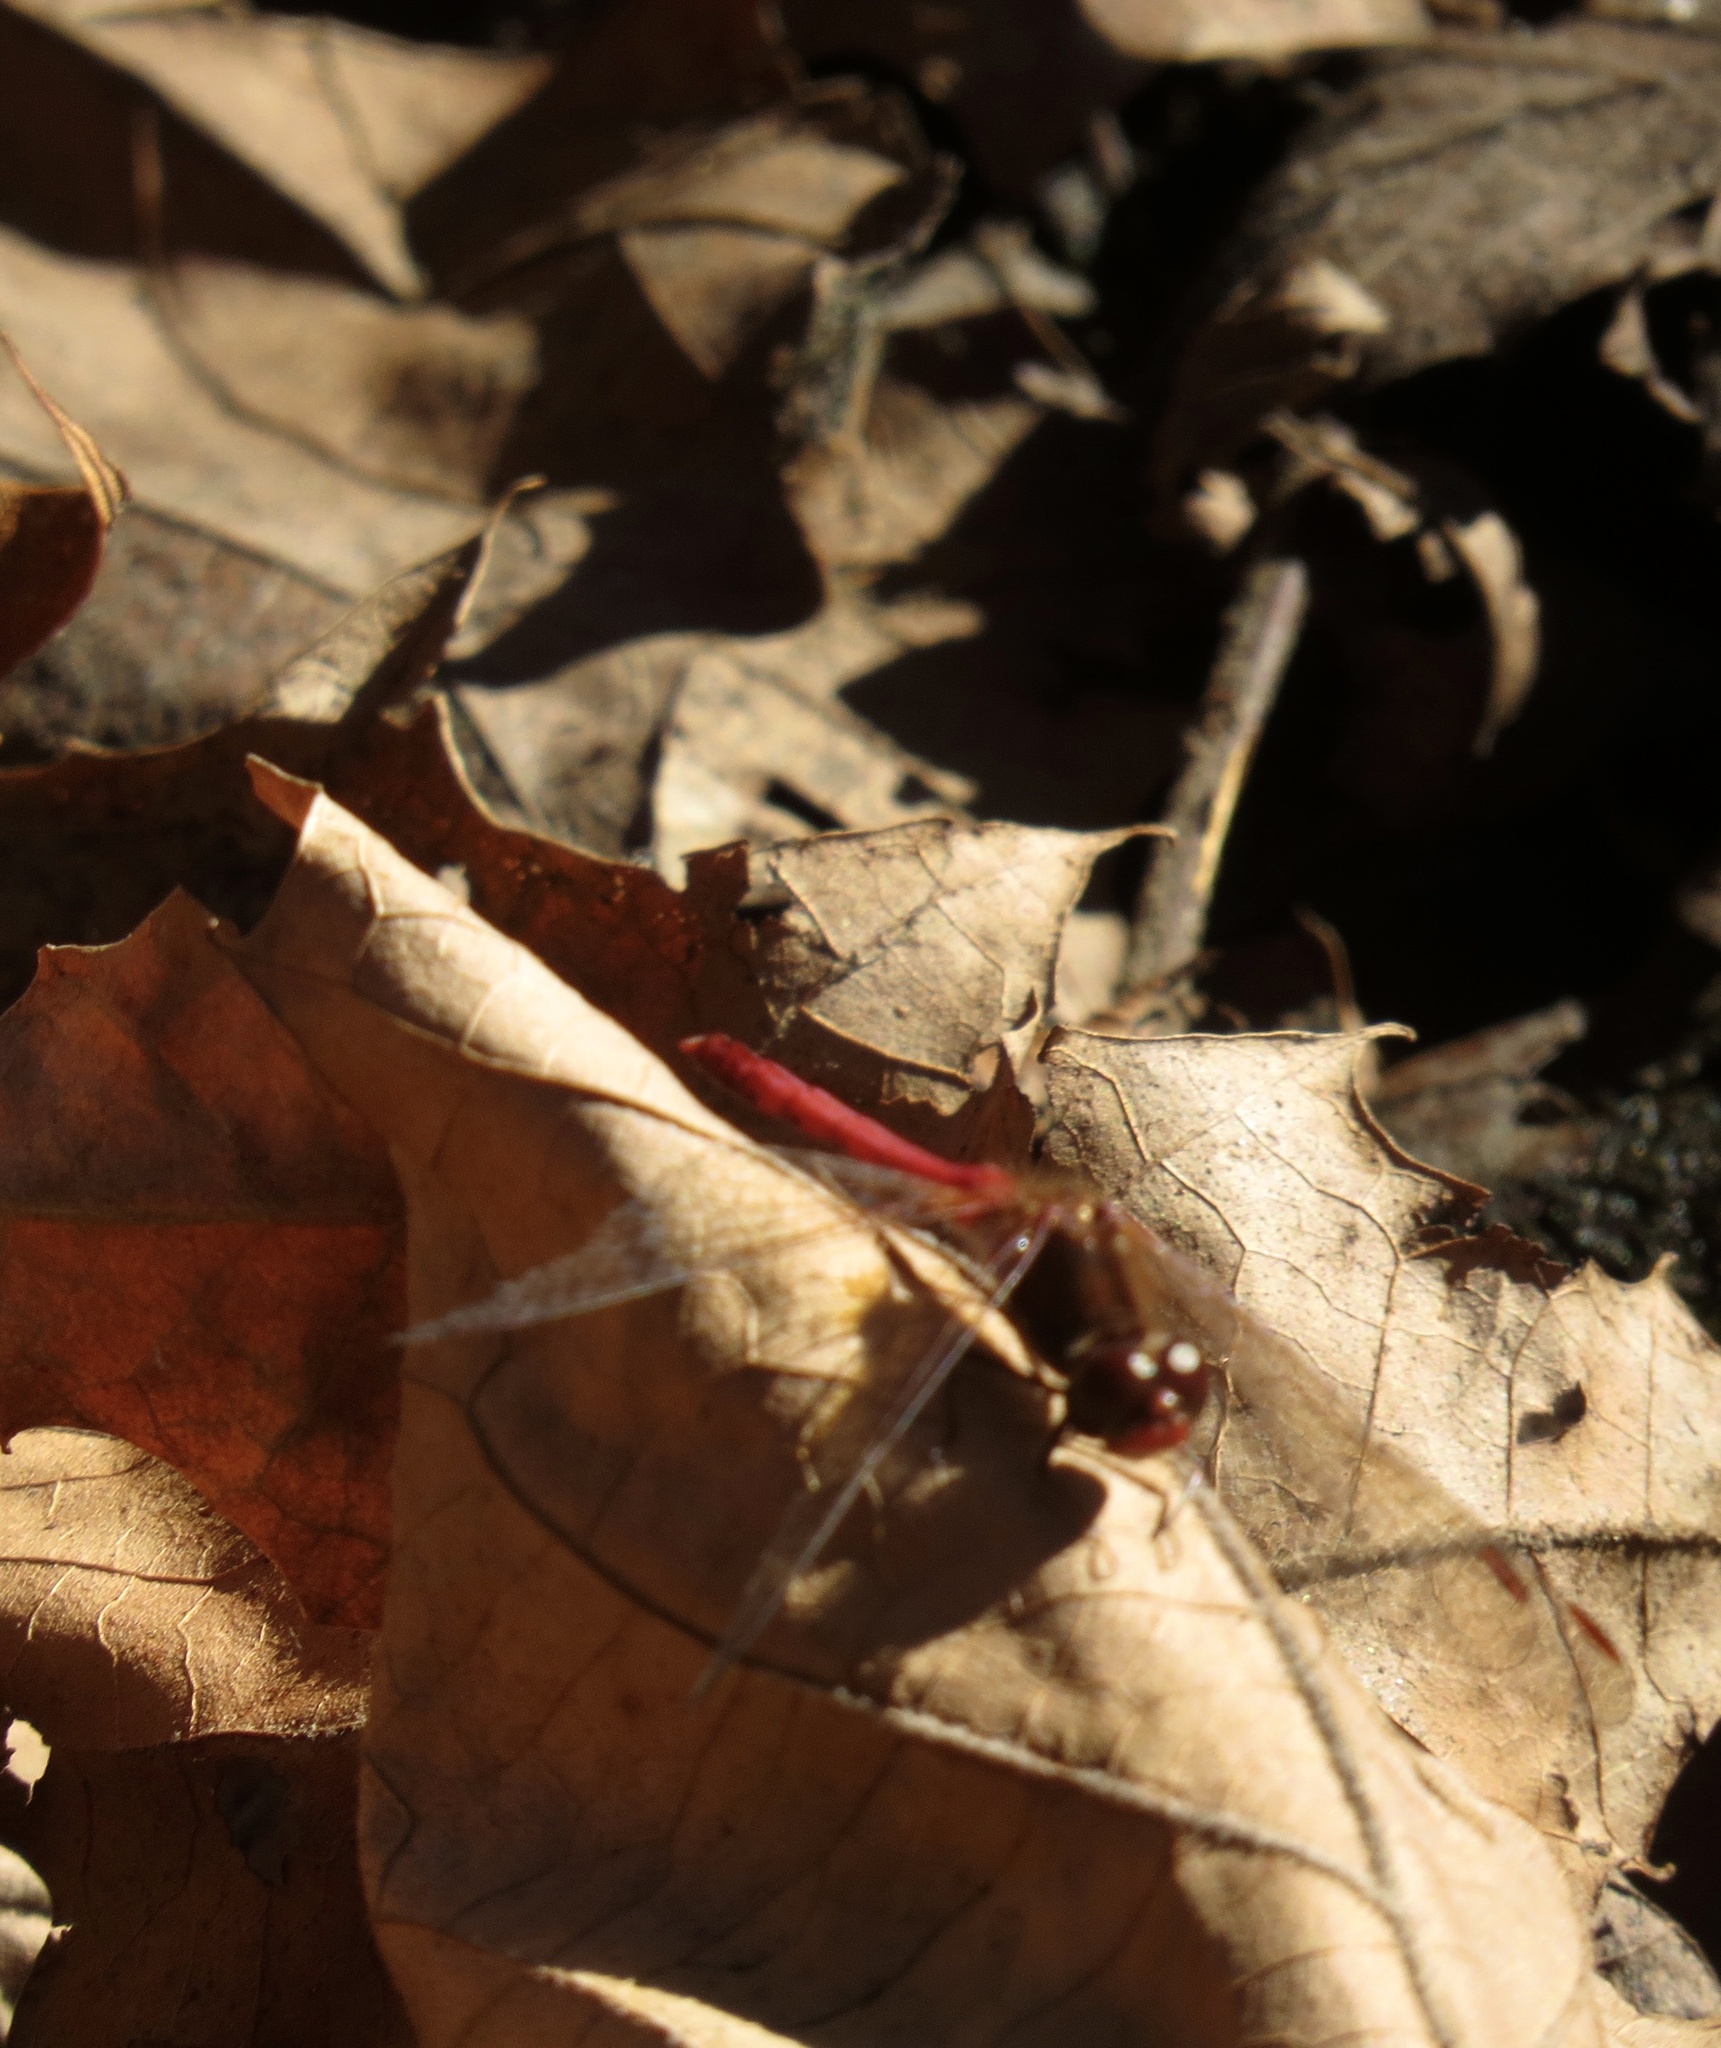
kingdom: Animalia
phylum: Arthropoda
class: Insecta
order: Odonata
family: Libellulidae
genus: Sympetrum
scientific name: Sympetrum vicinum
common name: Autumn meadowhawk
